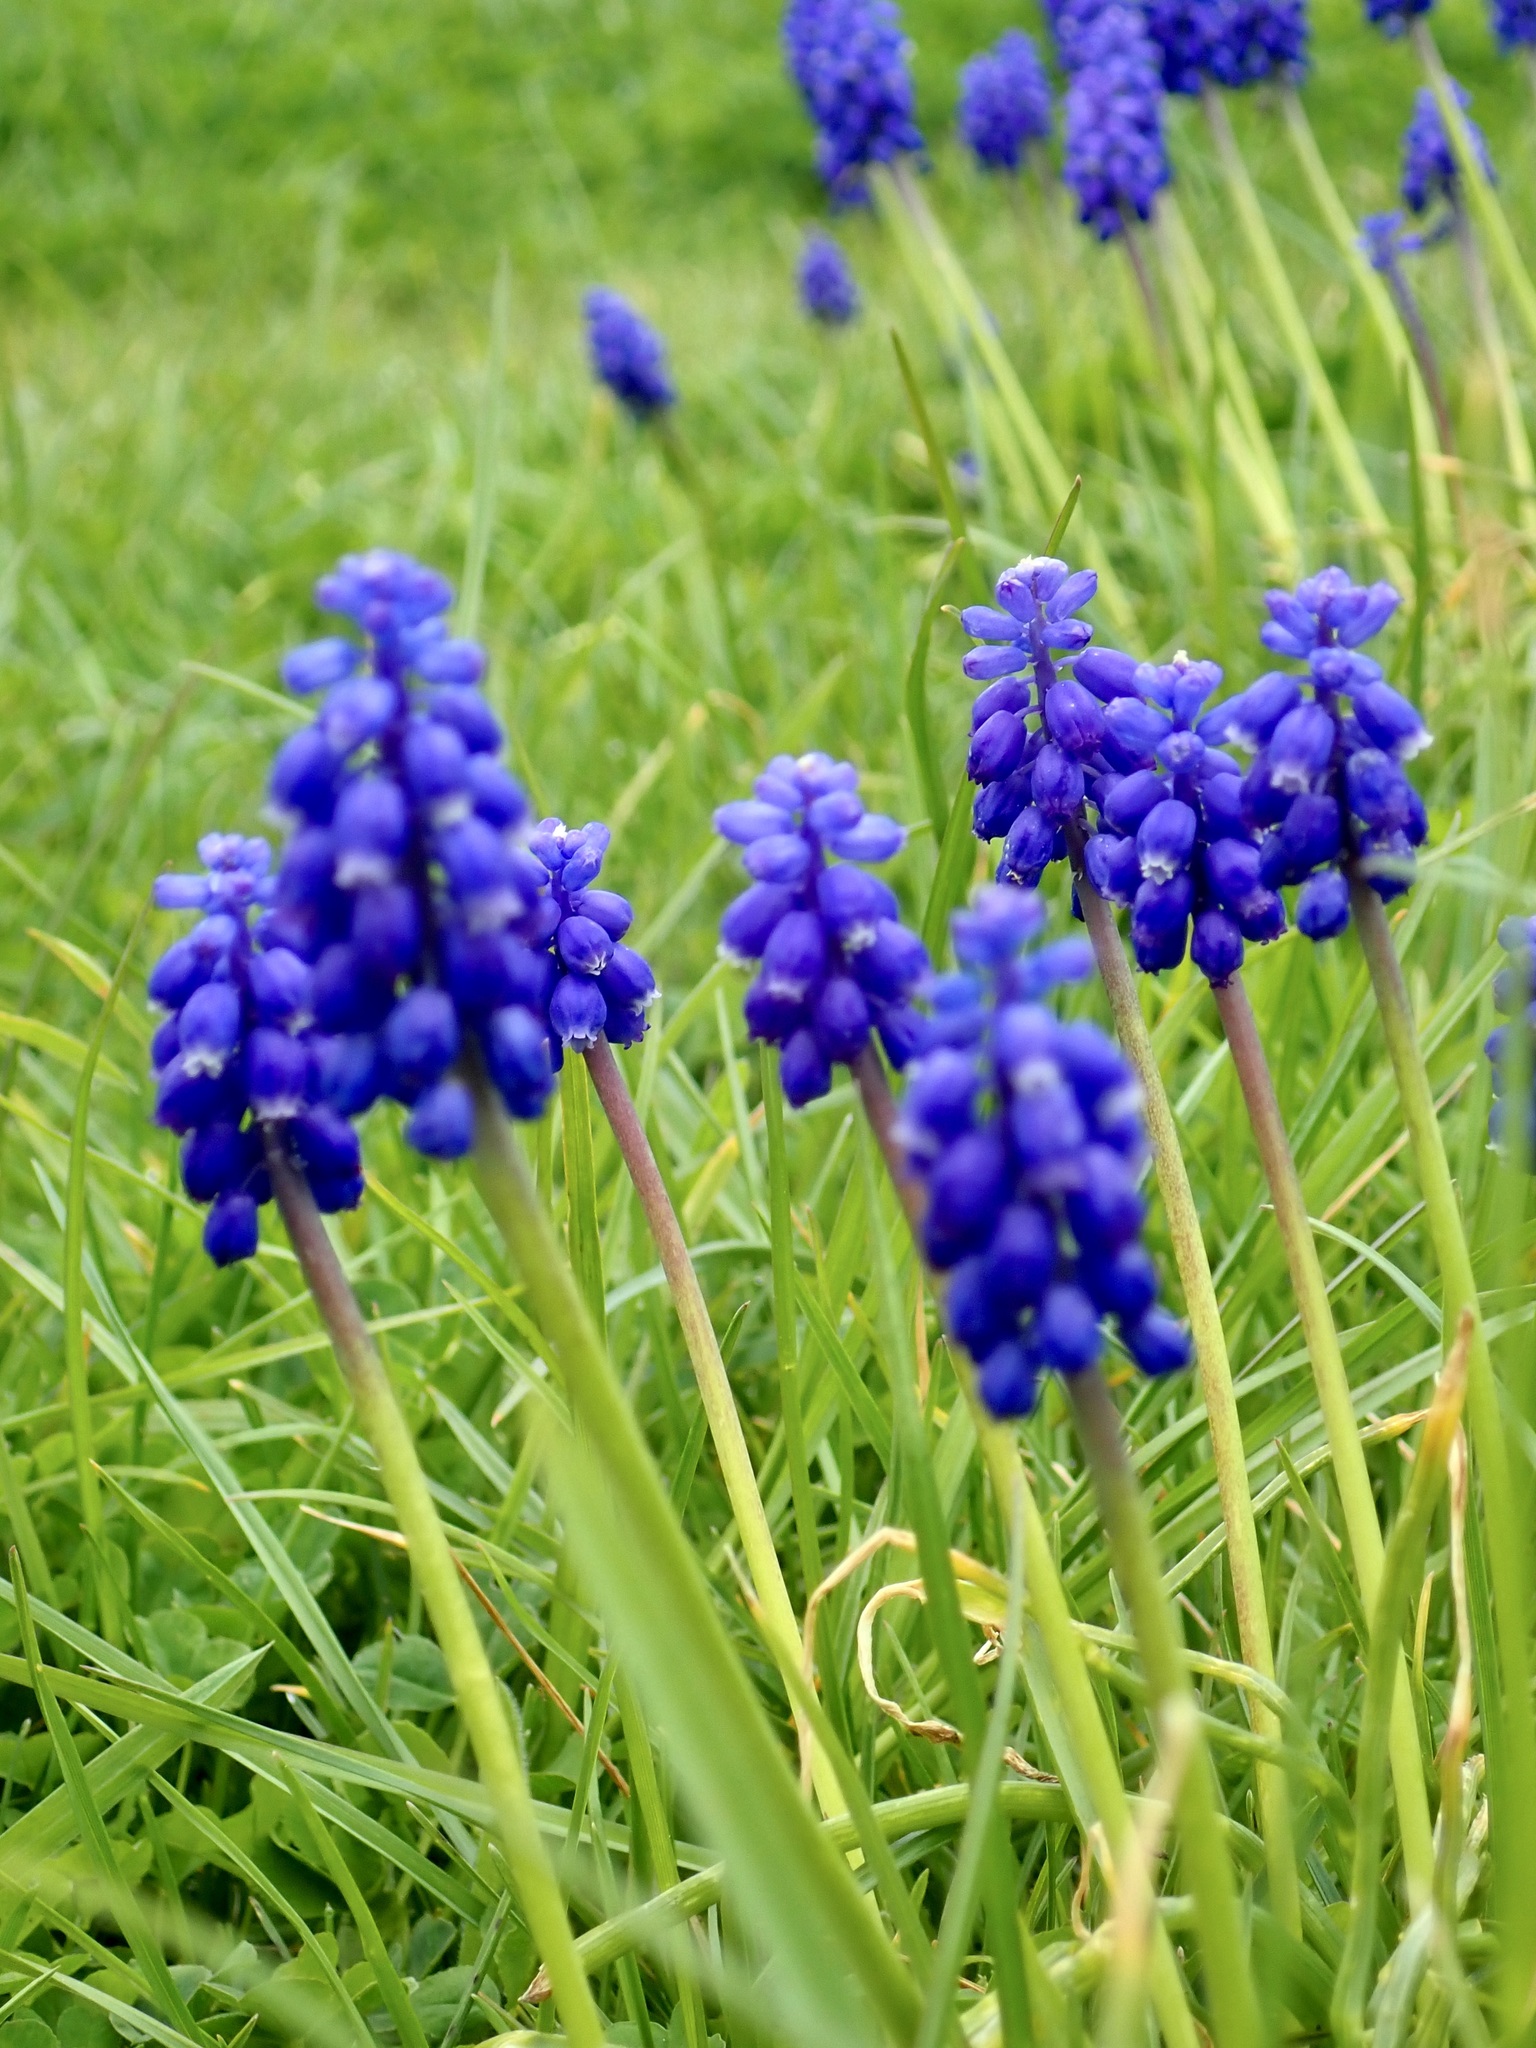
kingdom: Plantae
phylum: Tracheophyta
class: Liliopsida
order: Asparagales
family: Asparagaceae
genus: Muscari
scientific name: Muscari armeniacum
